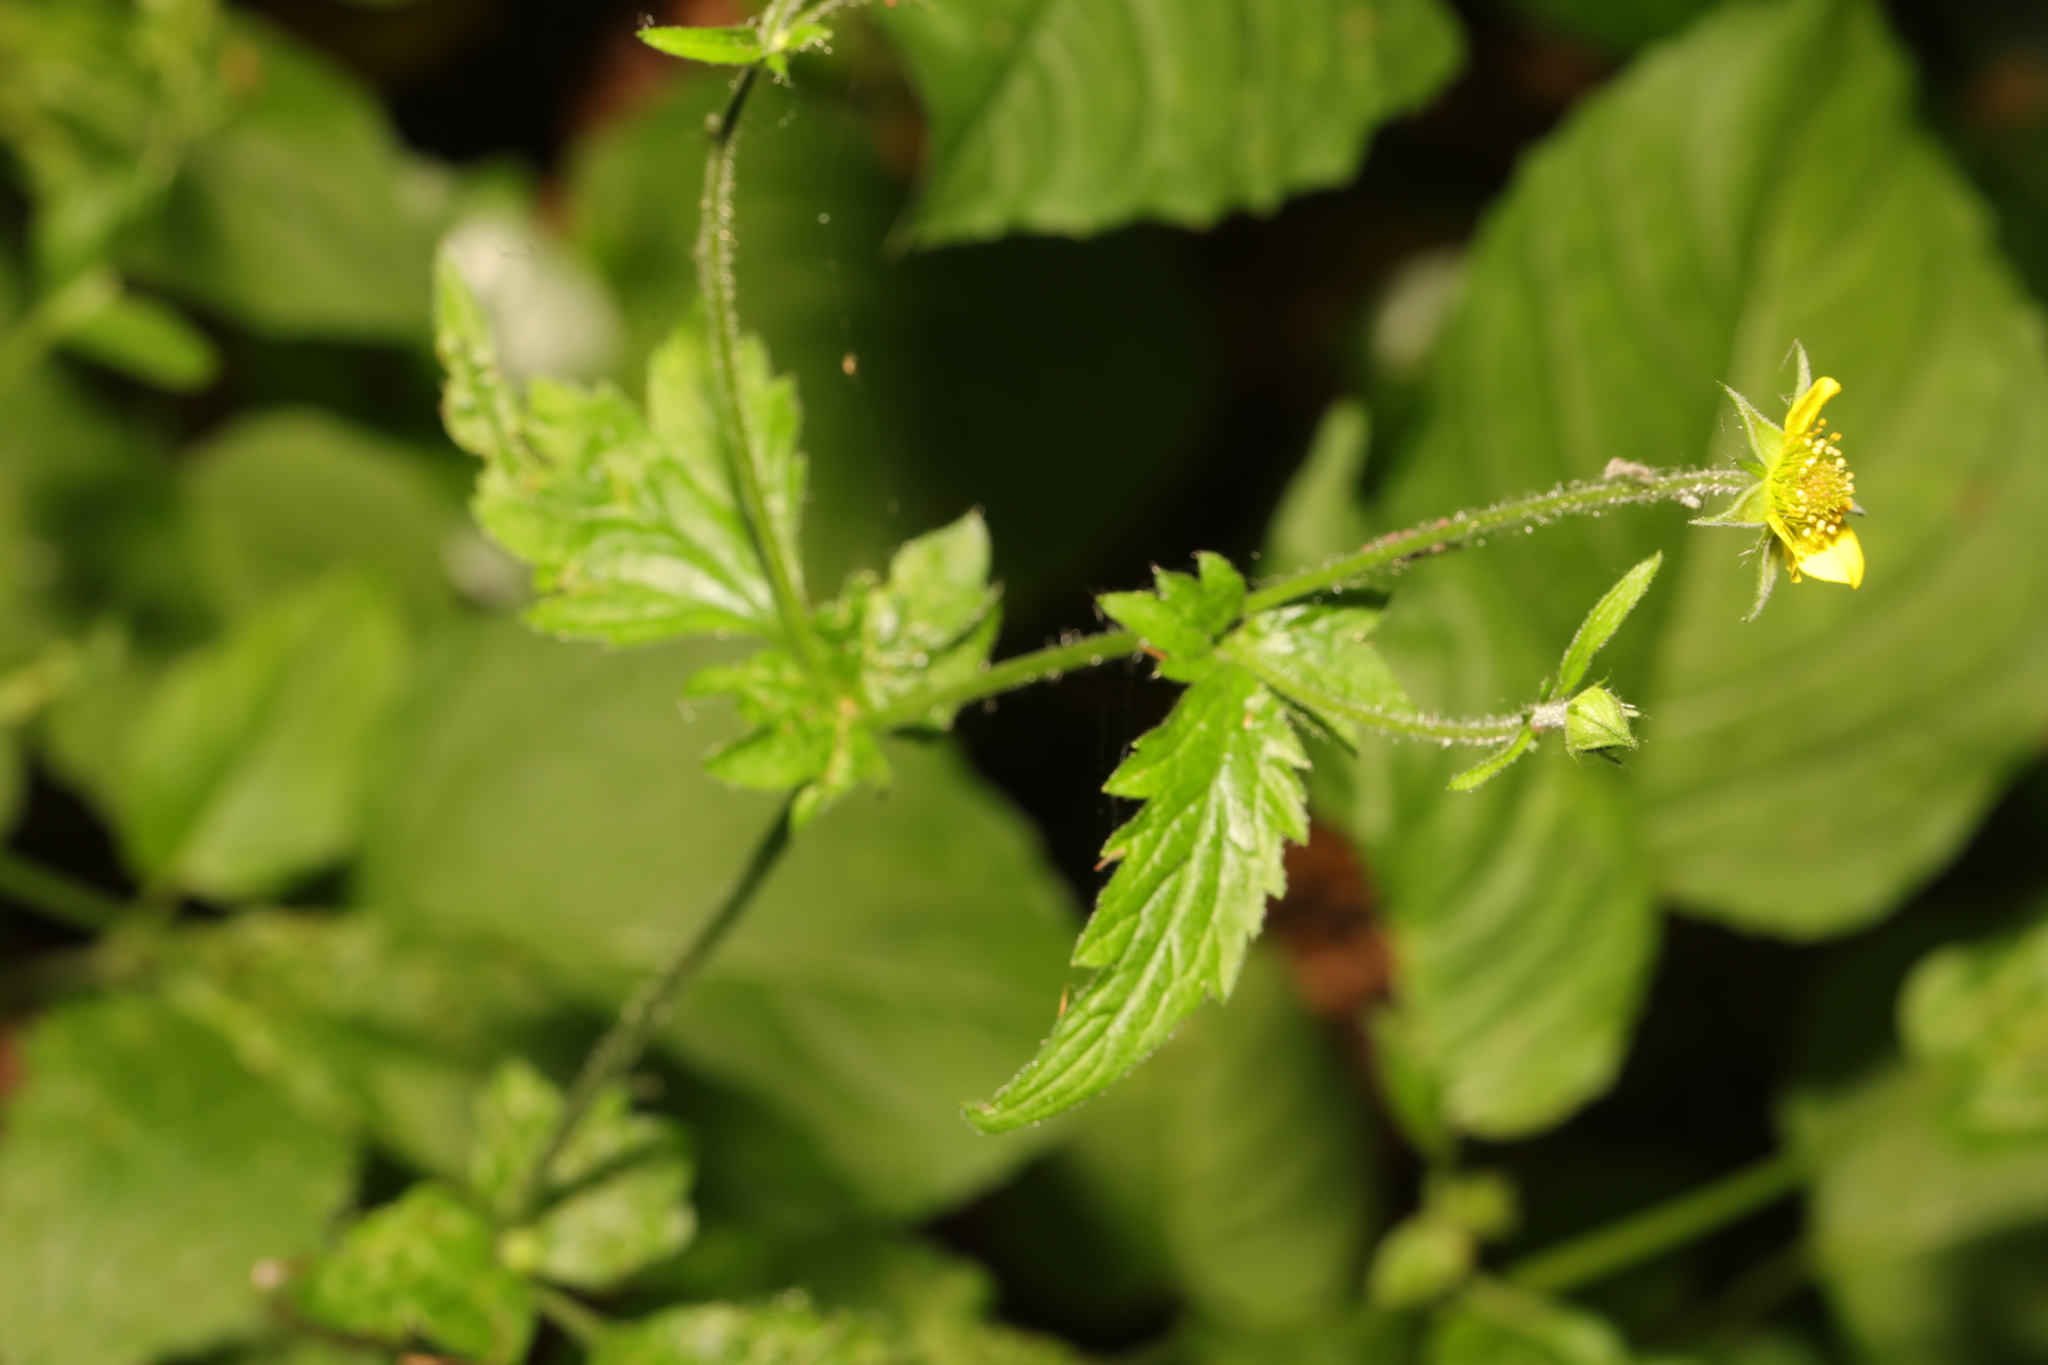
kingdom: Plantae
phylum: Tracheophyta
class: Magnoliopsida
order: Rosales
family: Rosaceae
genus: Geum
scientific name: Geum urbanum
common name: Wood avens
